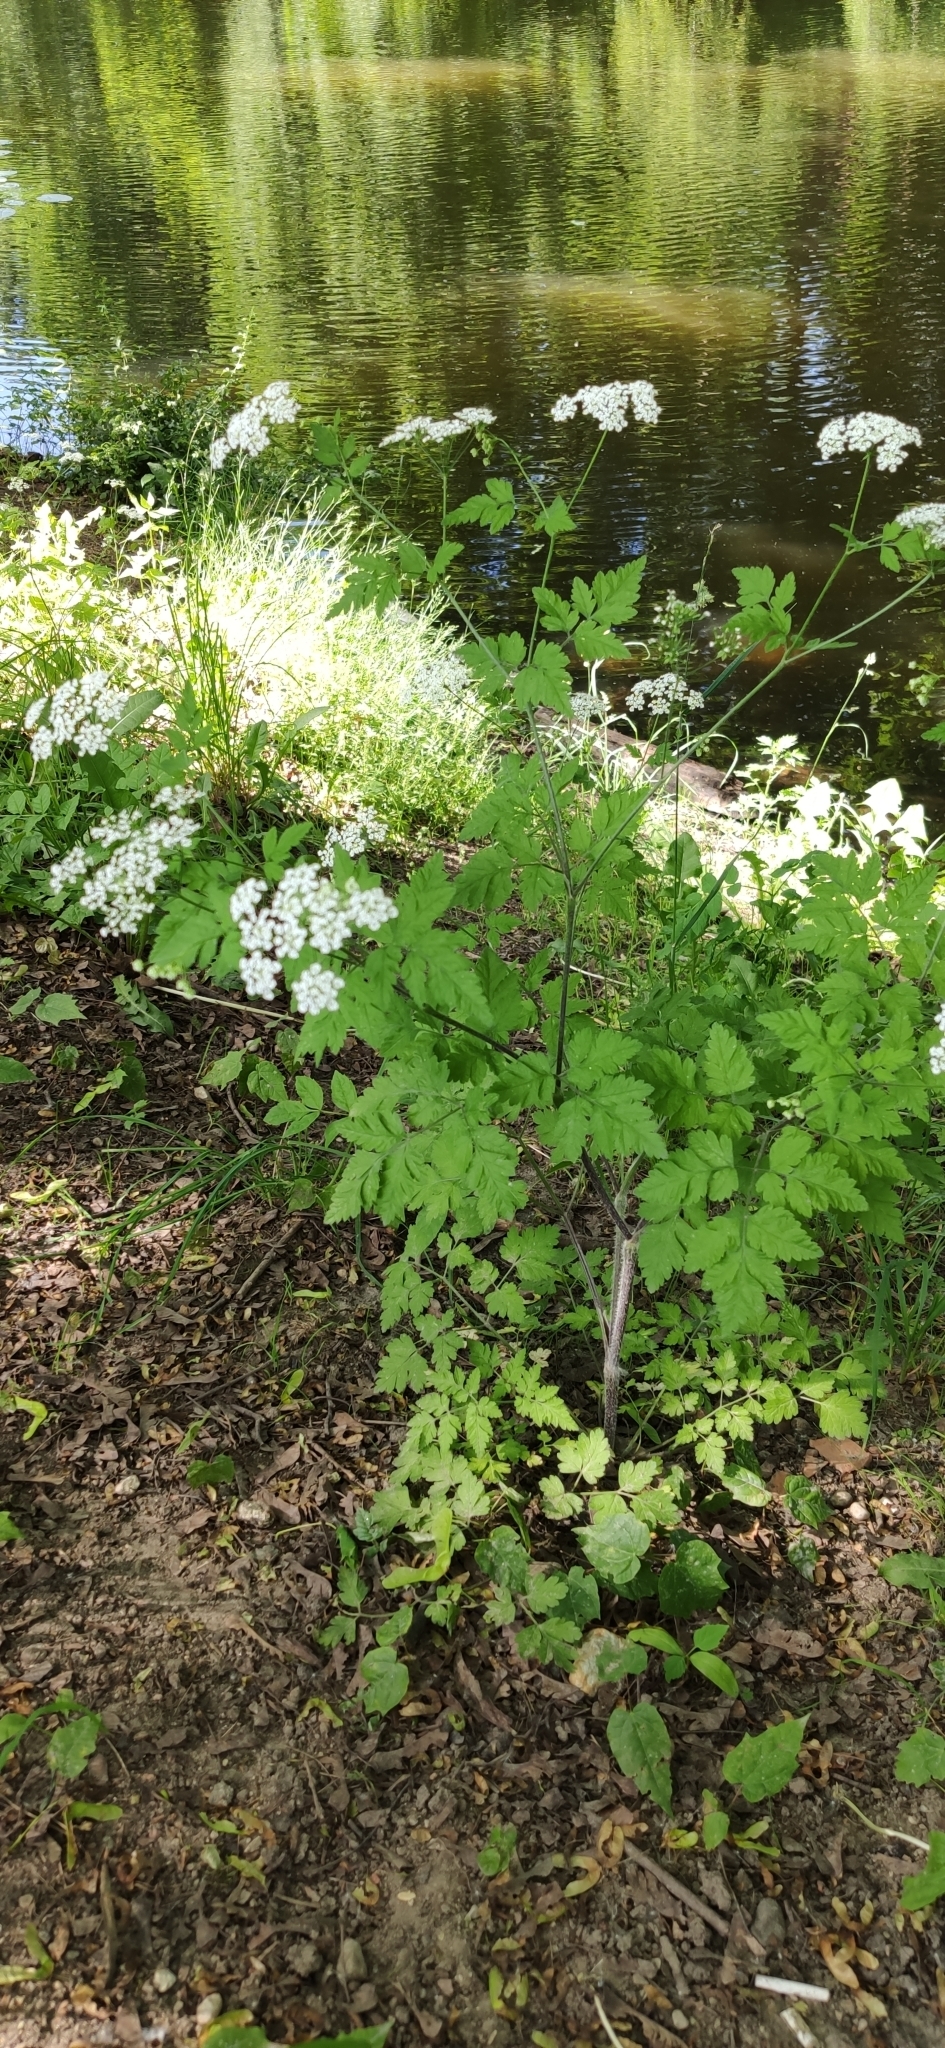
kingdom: Plantae
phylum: Tracheophyta
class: Magnoliopsida
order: Apiales
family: Apiaceae
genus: Chaerophyllum
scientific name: Chaerophyllum temulum
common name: Rough chervil
